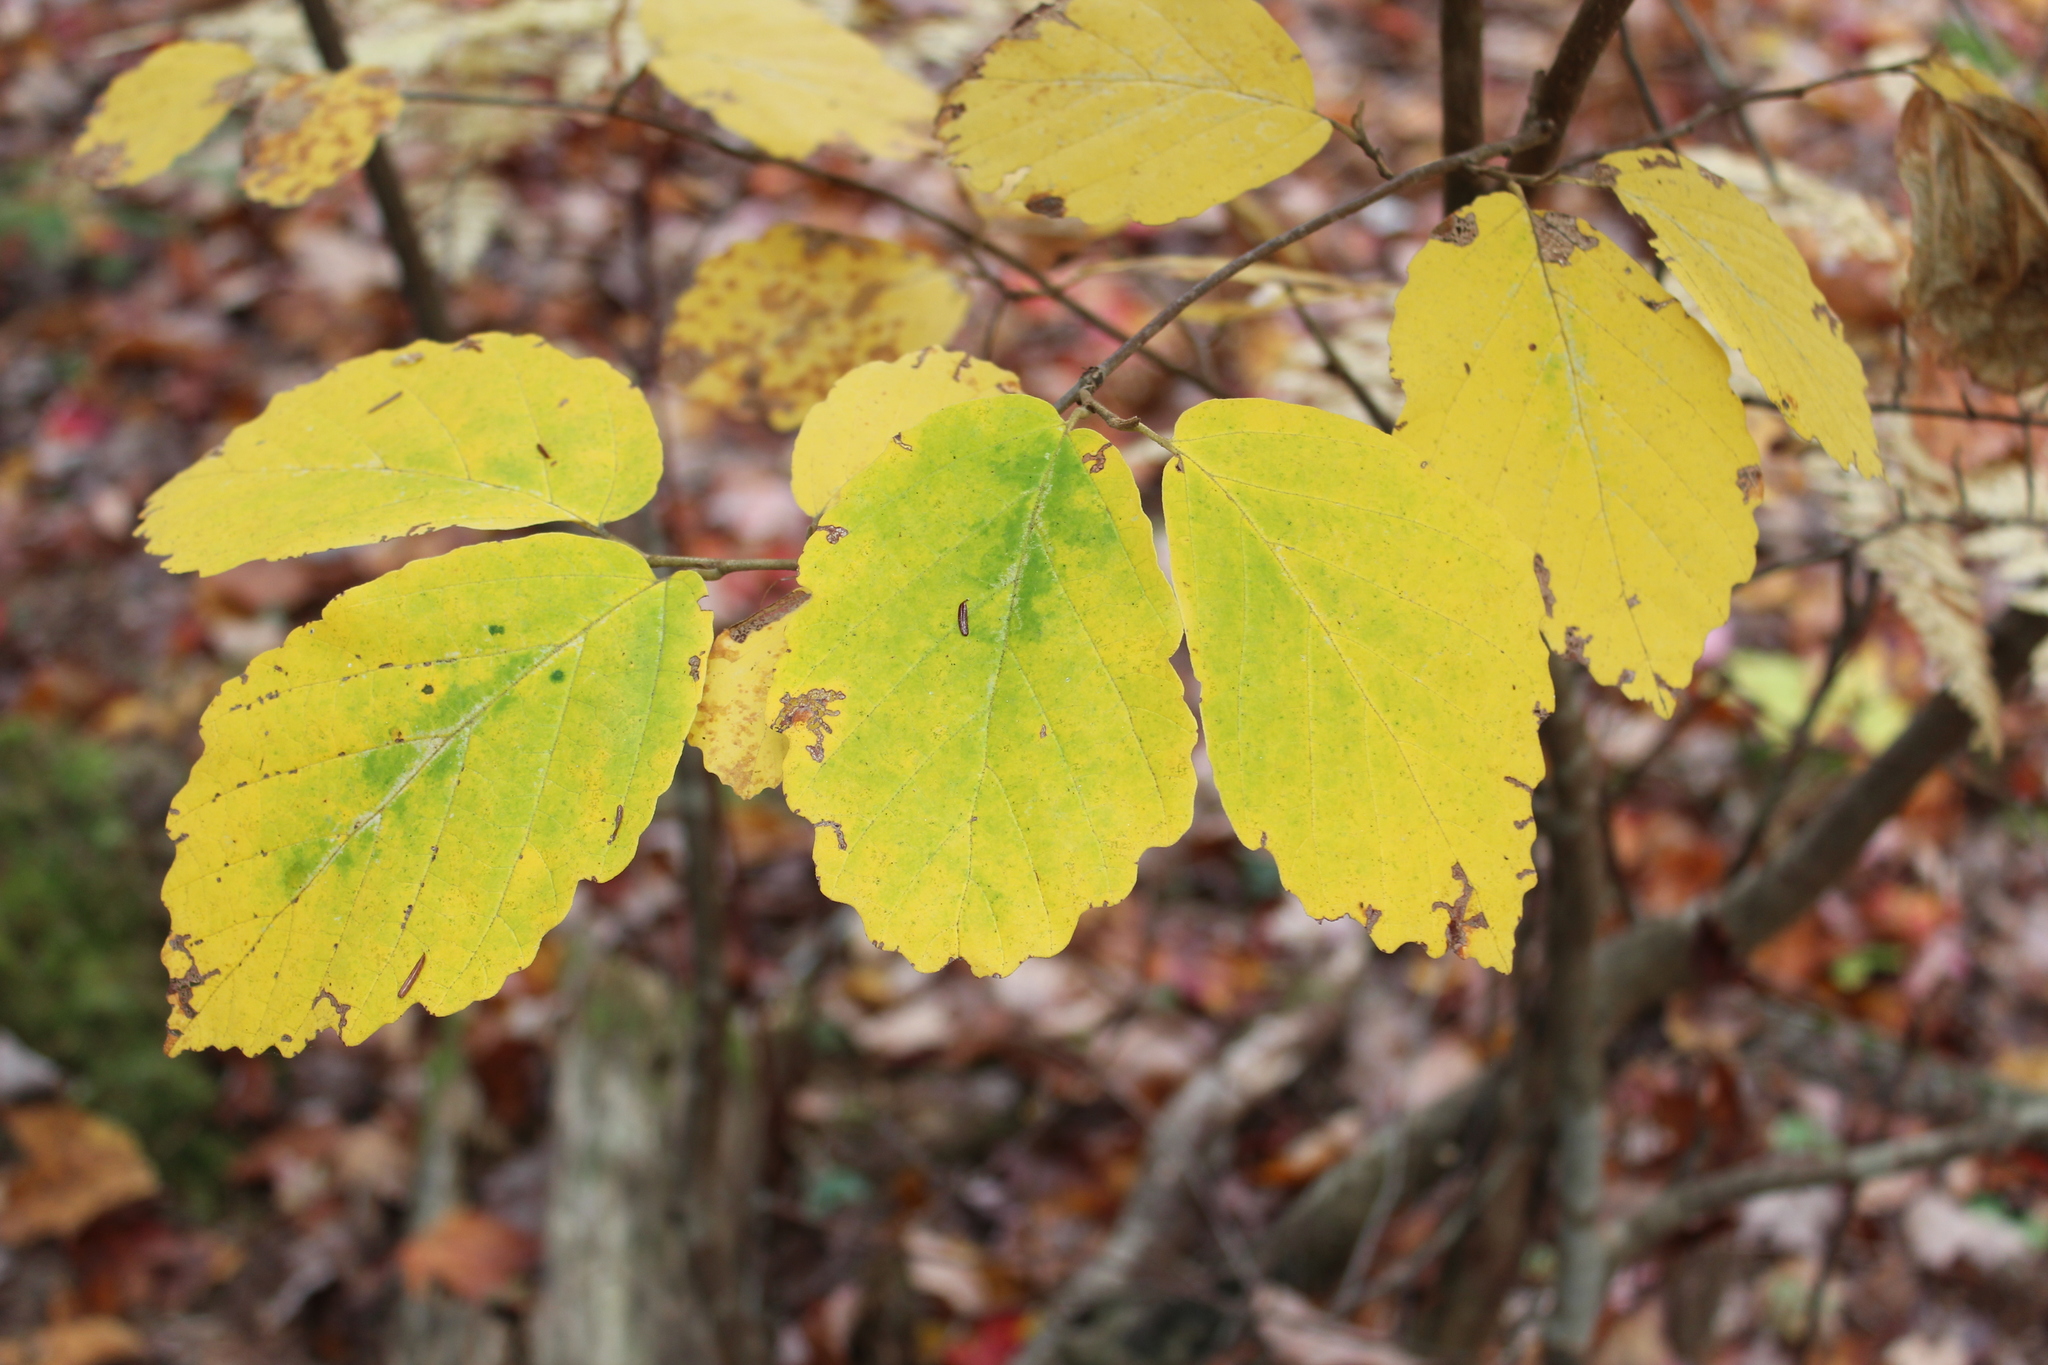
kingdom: Plantae
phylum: Tracheophyta
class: Magnoliopsida
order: Saxifragales
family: Hamamelidaceae
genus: Hamamelis
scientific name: Hamamelis virginiana
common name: Witch-hazel
